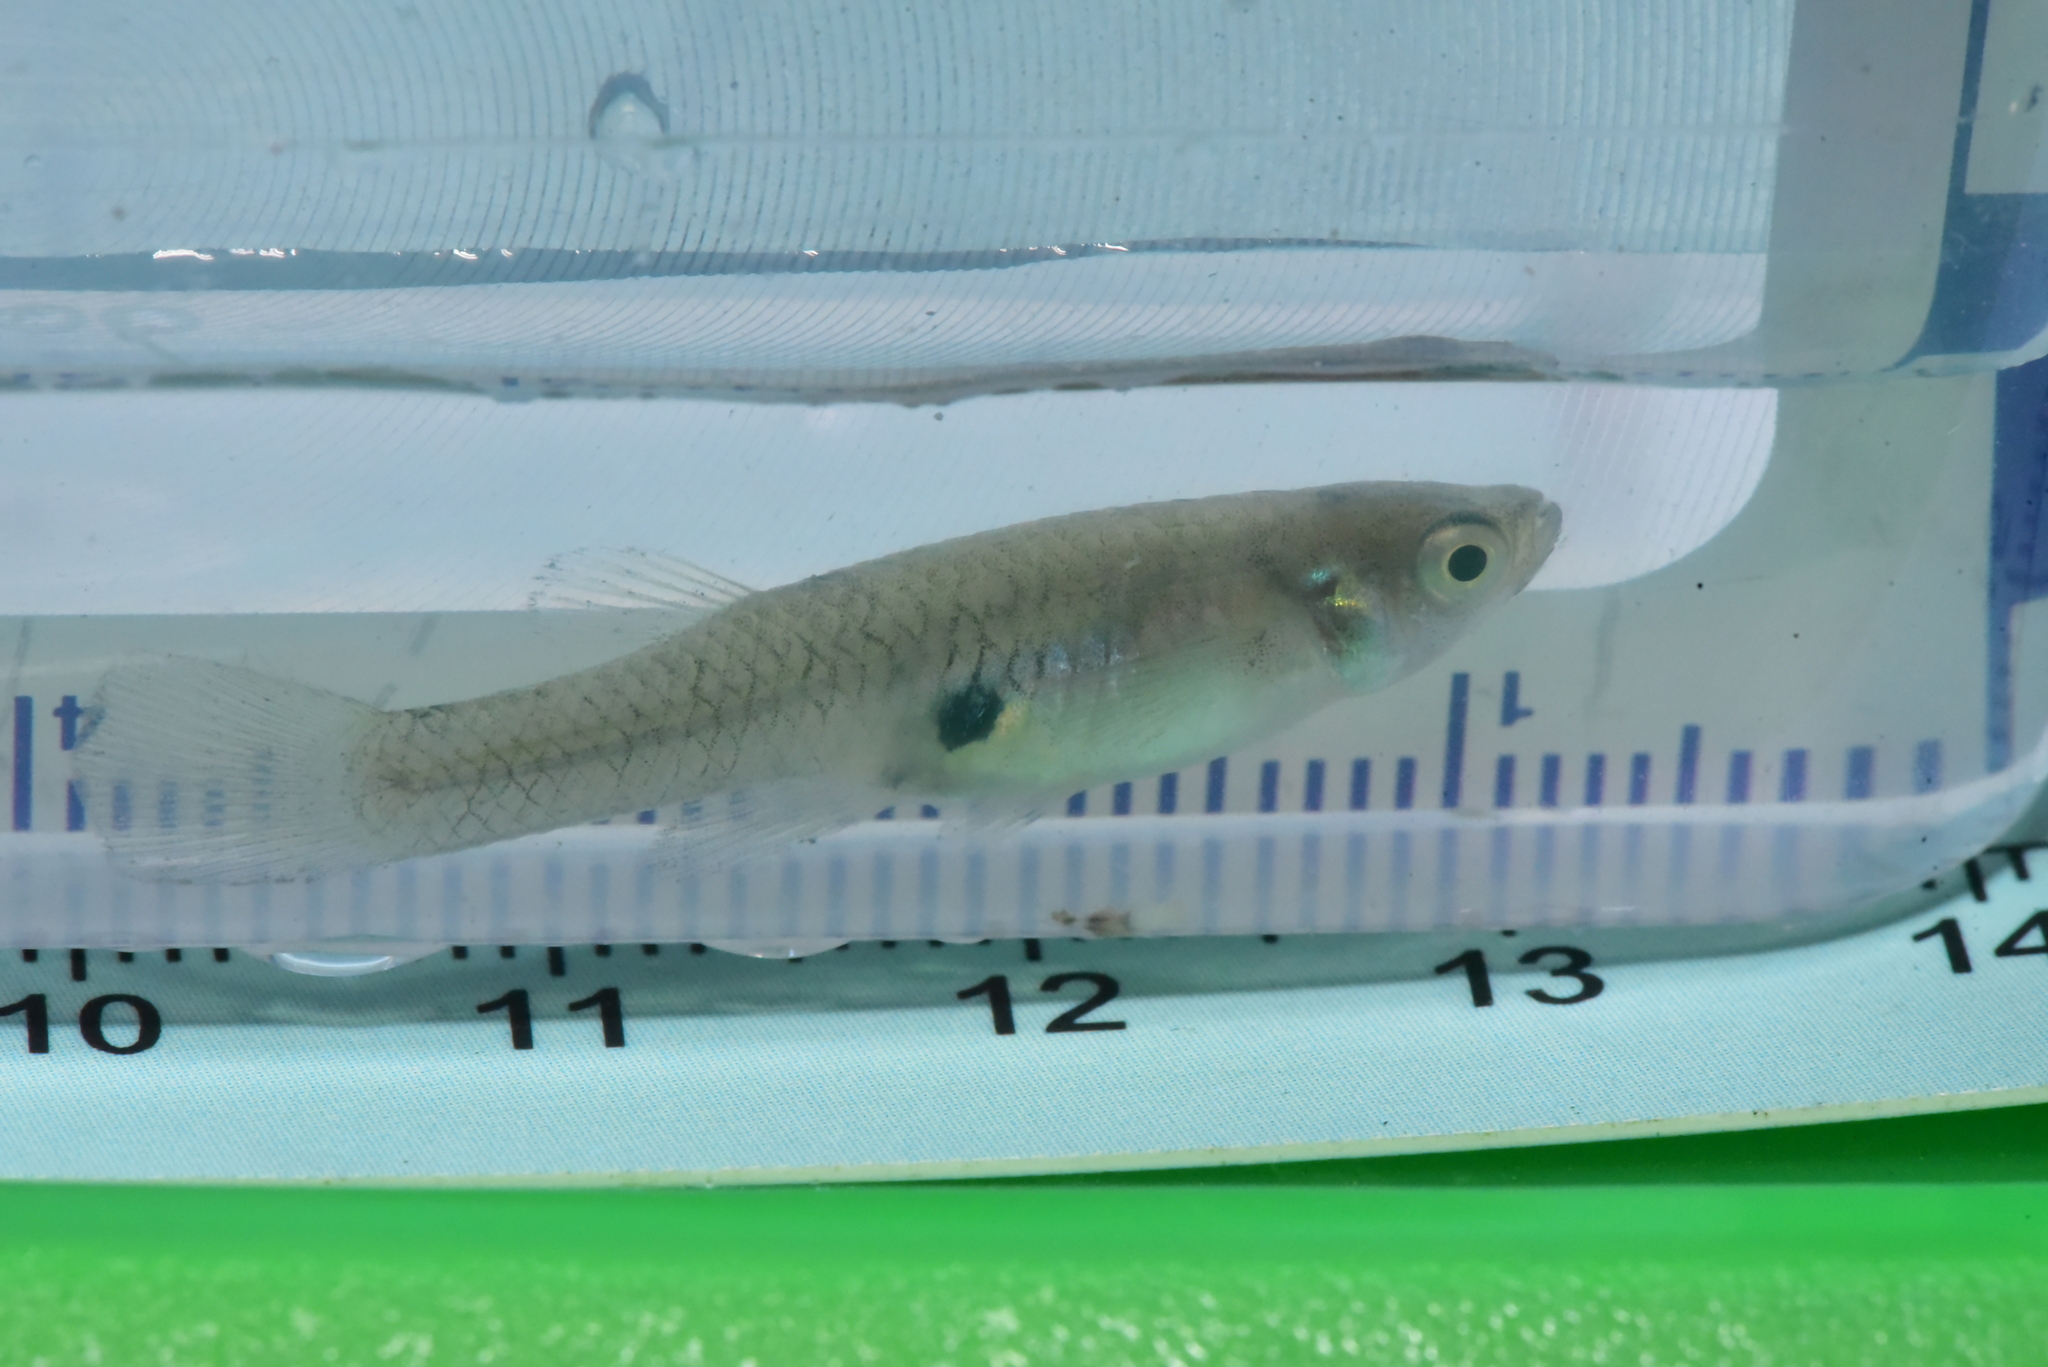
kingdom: Animalia
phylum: Chordata
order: Cyprinodontiformes
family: Poeciliidae
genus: Gambusia
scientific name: Gambusia affinis
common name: Mosquitofish
